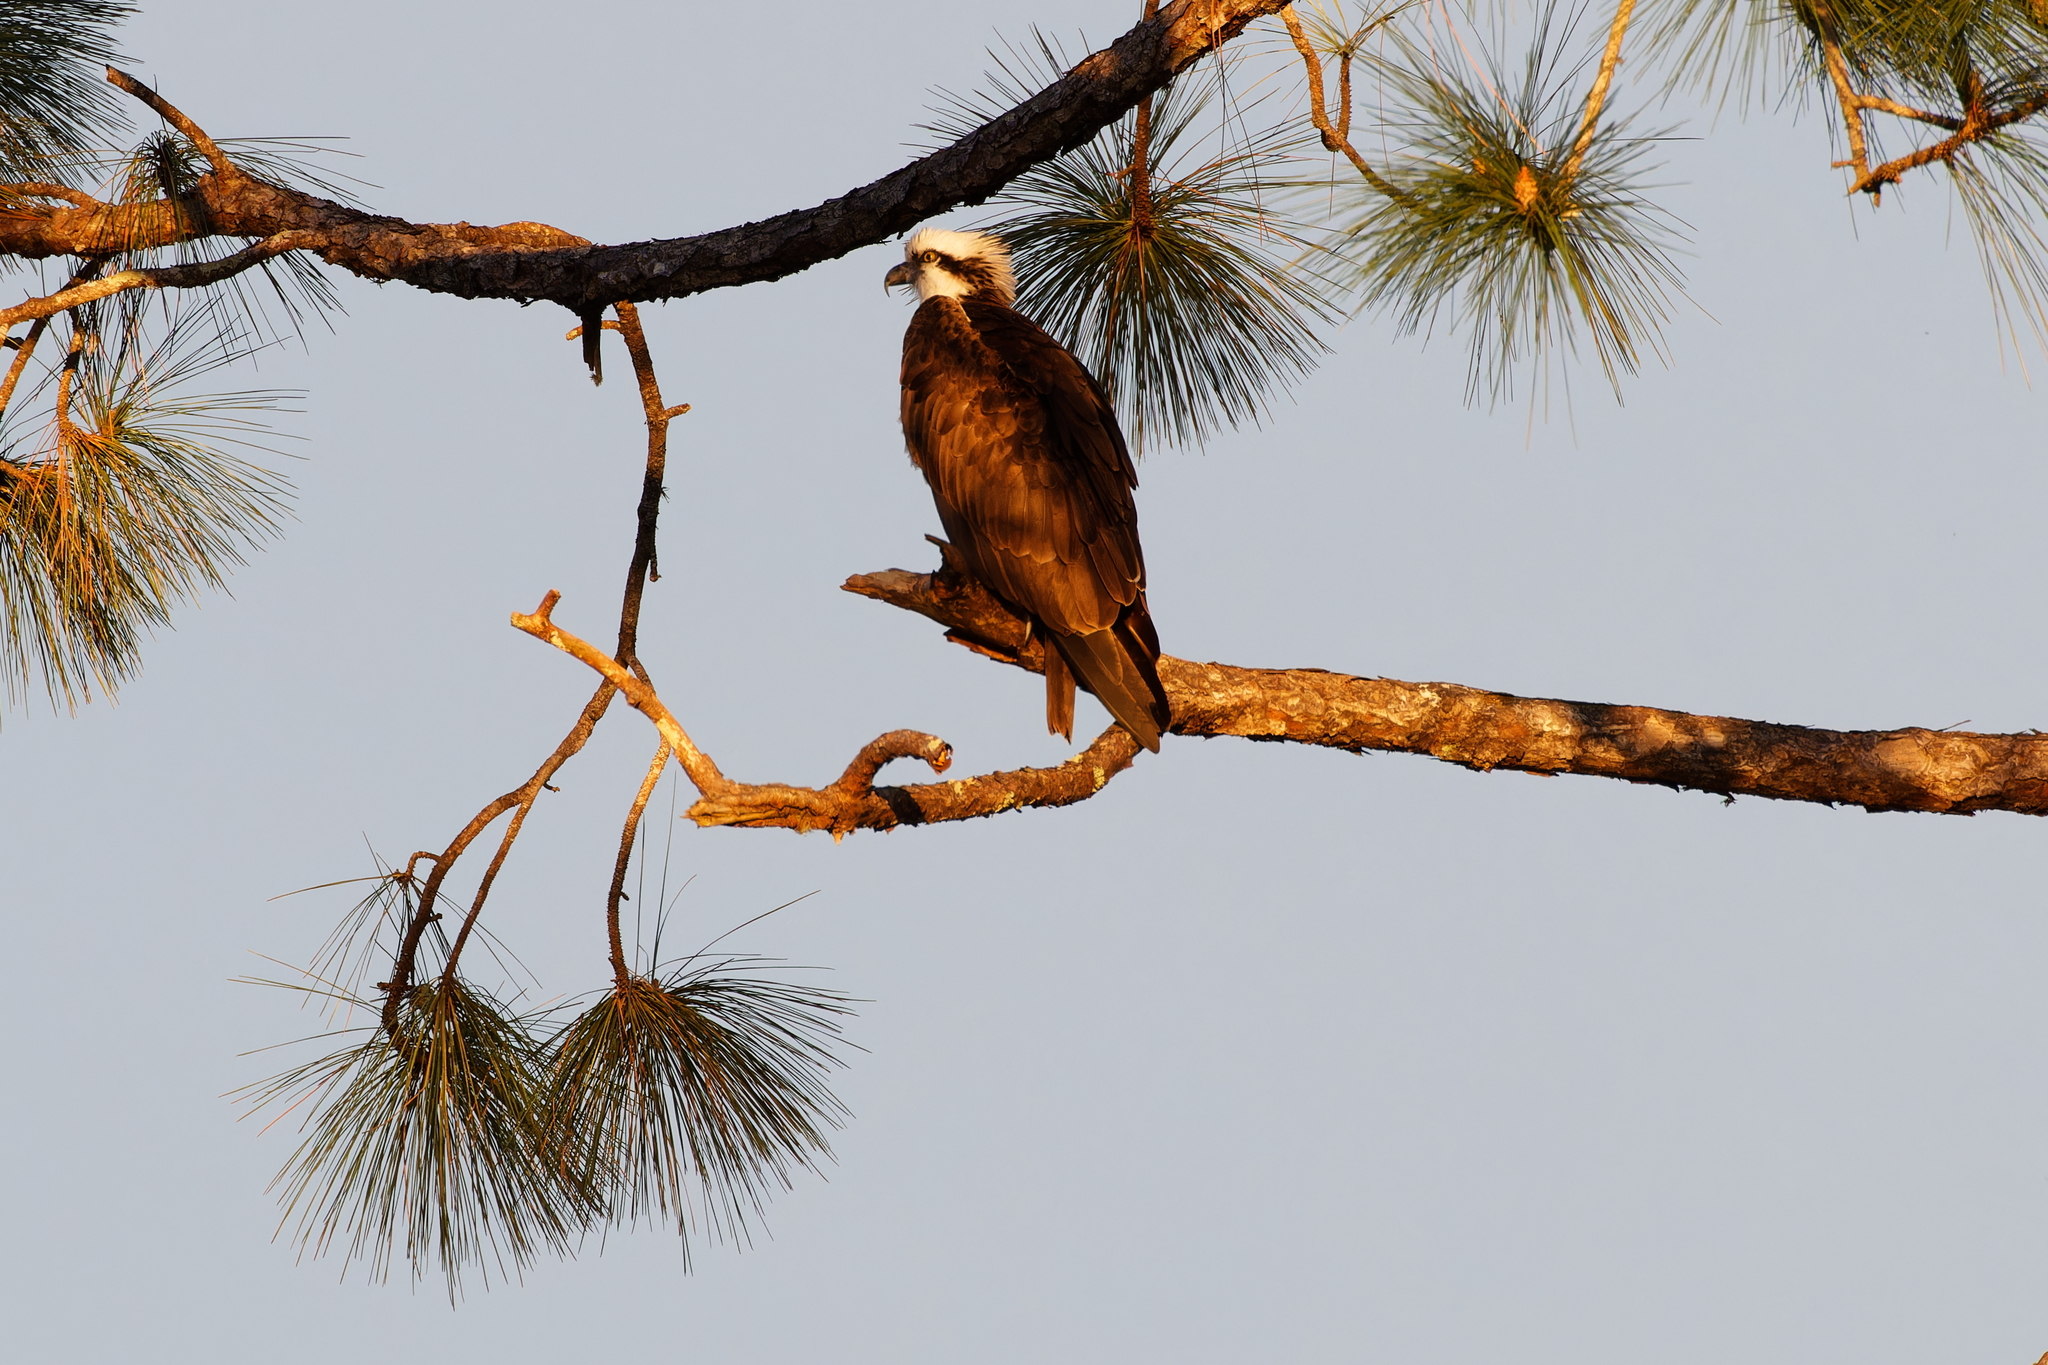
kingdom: Animalia
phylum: Chordata
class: Aves
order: Accipitriformes
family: Pandionidae
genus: Pandion
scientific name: Pandion haliaetus
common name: Osprey
